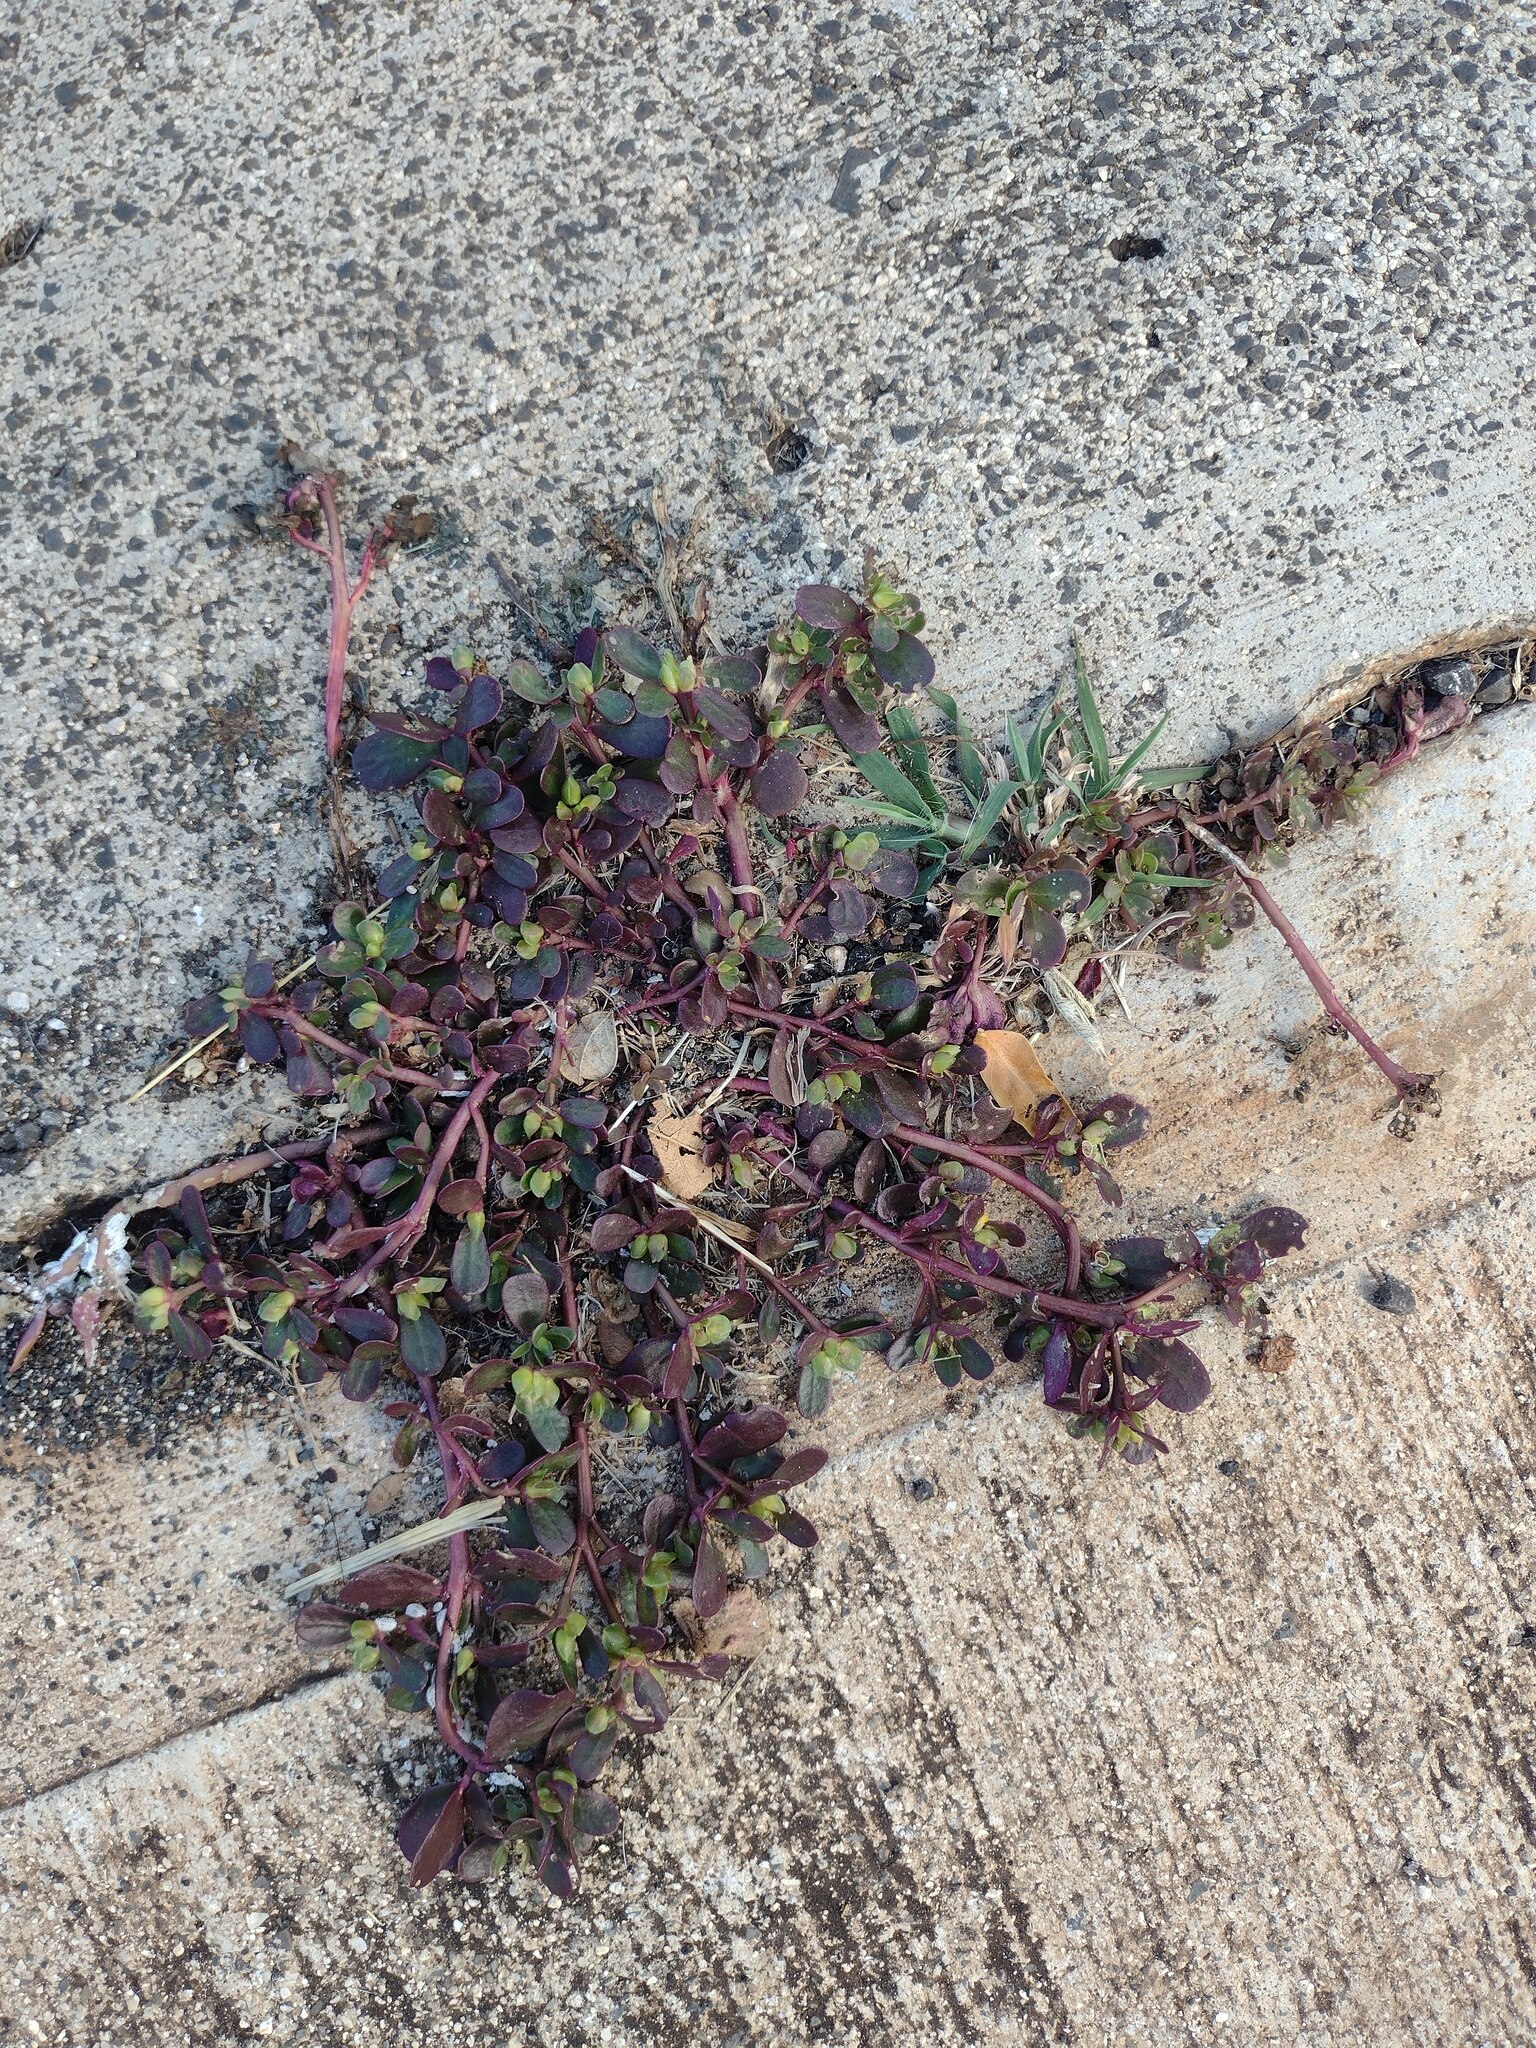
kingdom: Plantae
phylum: Tracheophyta
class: Magnoliopsida
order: Caryophyllales
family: Portulacaceae
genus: Portulaca
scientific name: Portulaca oleracea
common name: Common purslane
